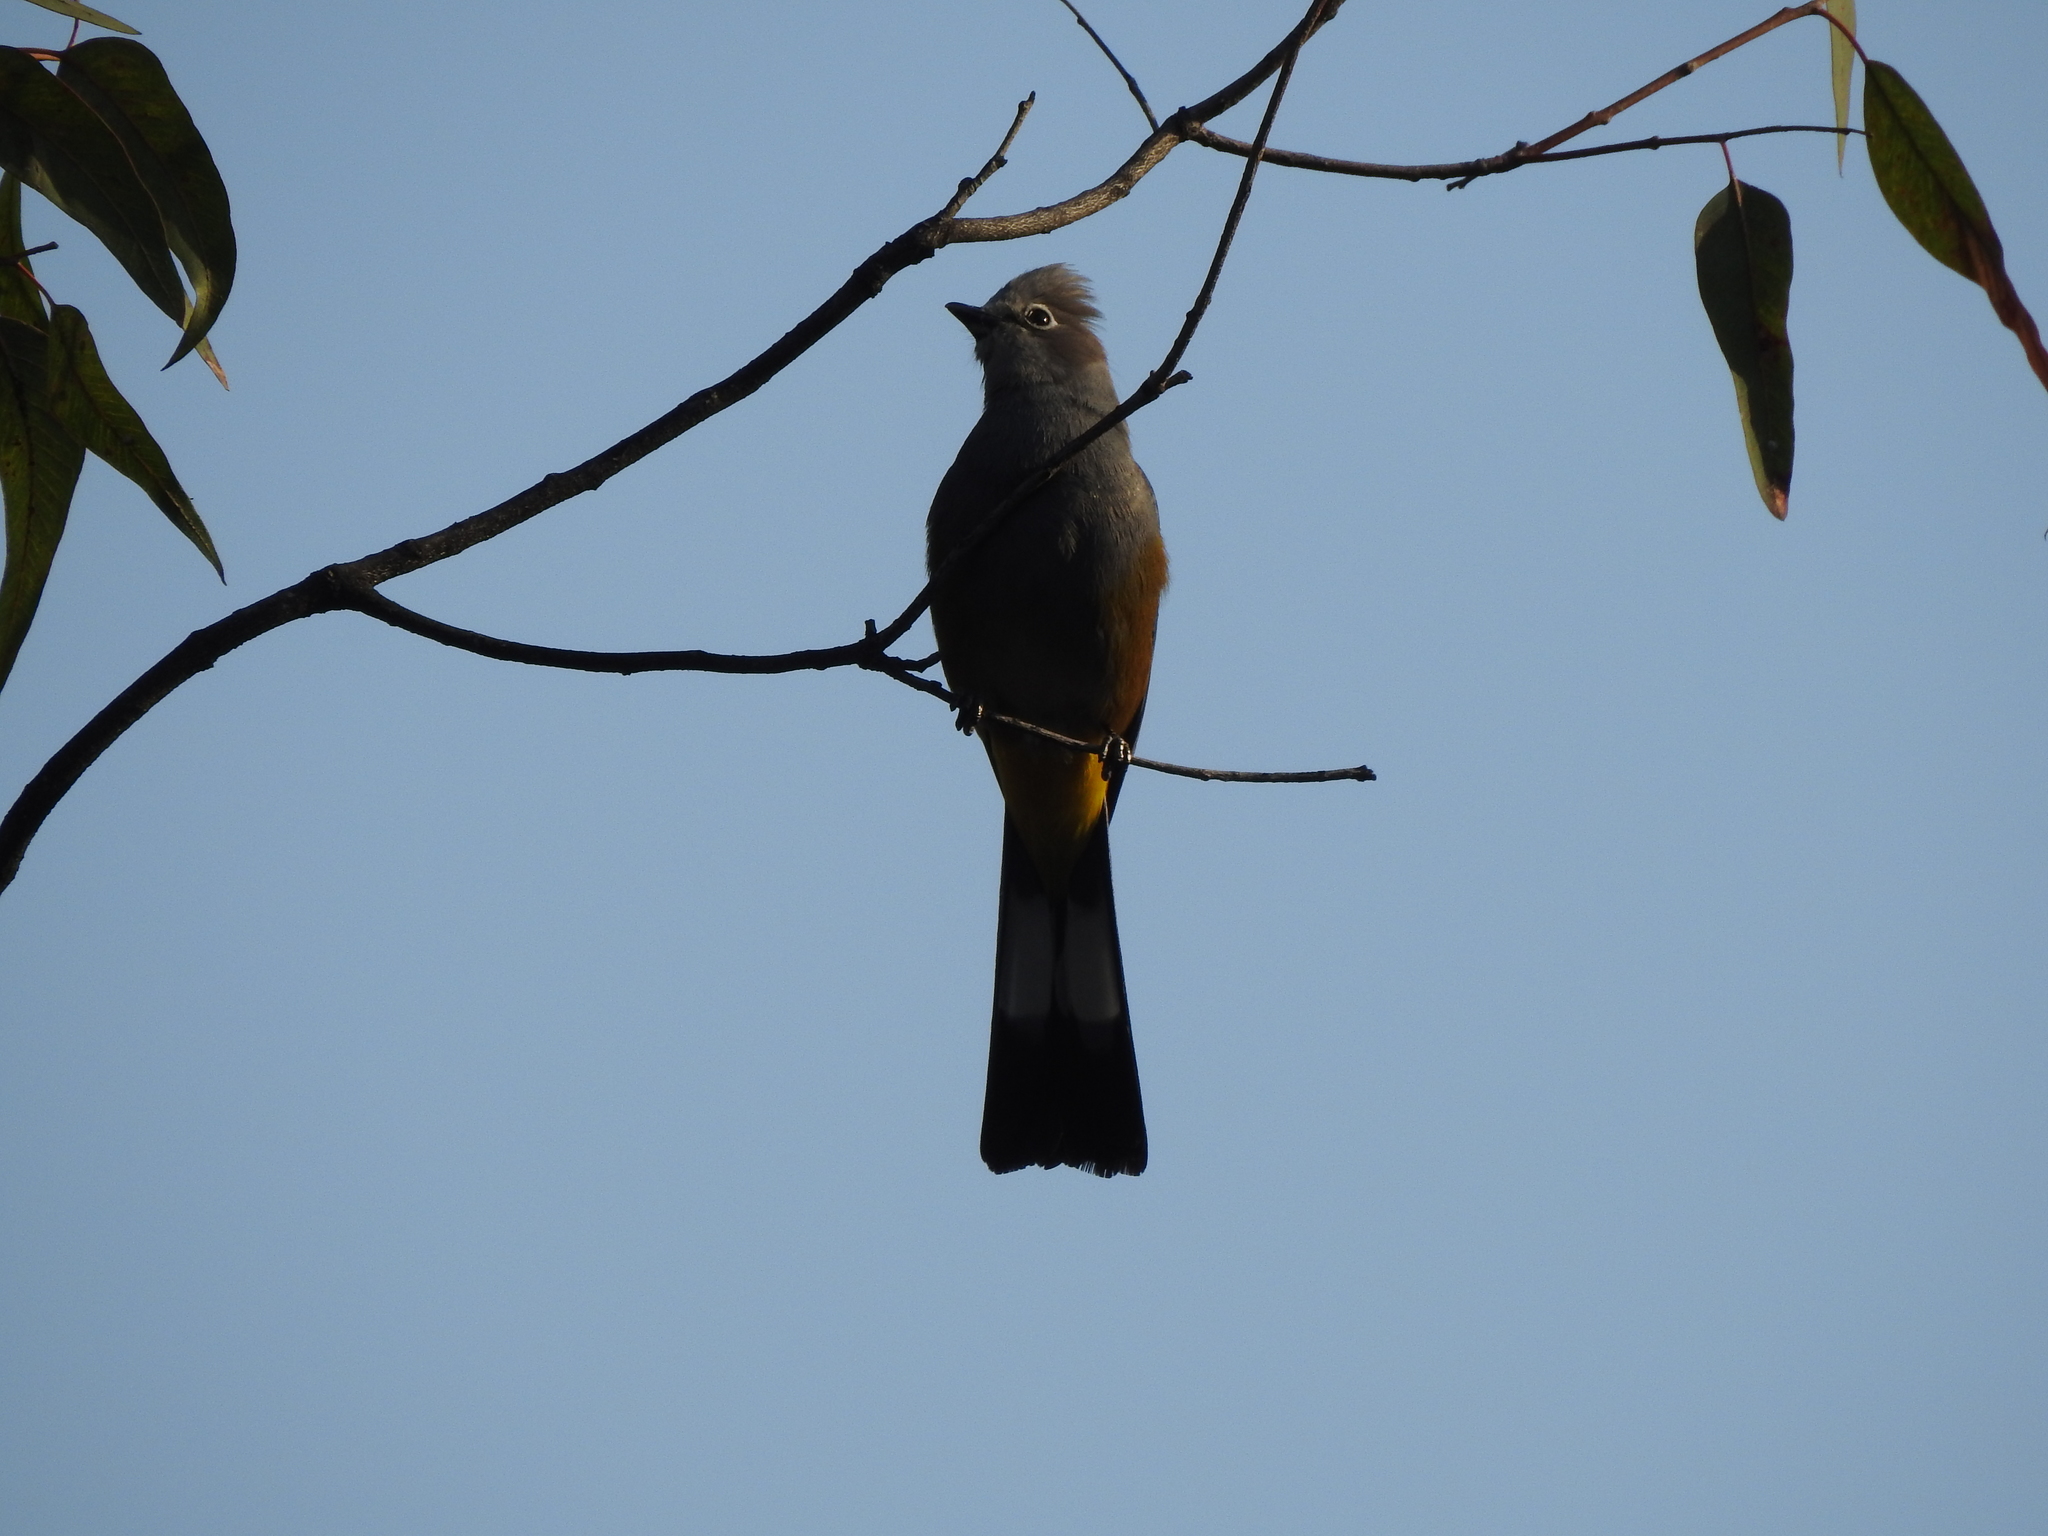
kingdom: Animalia
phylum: Chordata
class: Aves
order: Passeriformes
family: Ptilogonatidae
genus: Ptilogonys
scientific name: Ptilogonys cinereus
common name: Gray silky-flycatcher
